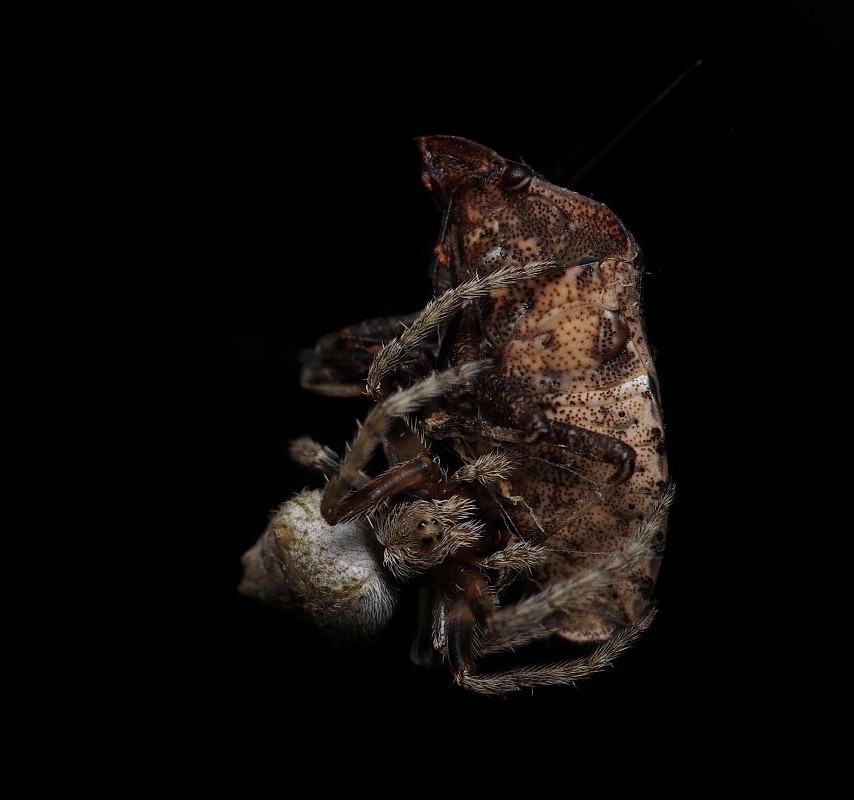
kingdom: Animalia
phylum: Arthropoda
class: Arachnida
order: Araneae
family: Araneidae
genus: Eriophora
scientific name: Eriophora pustulosa
